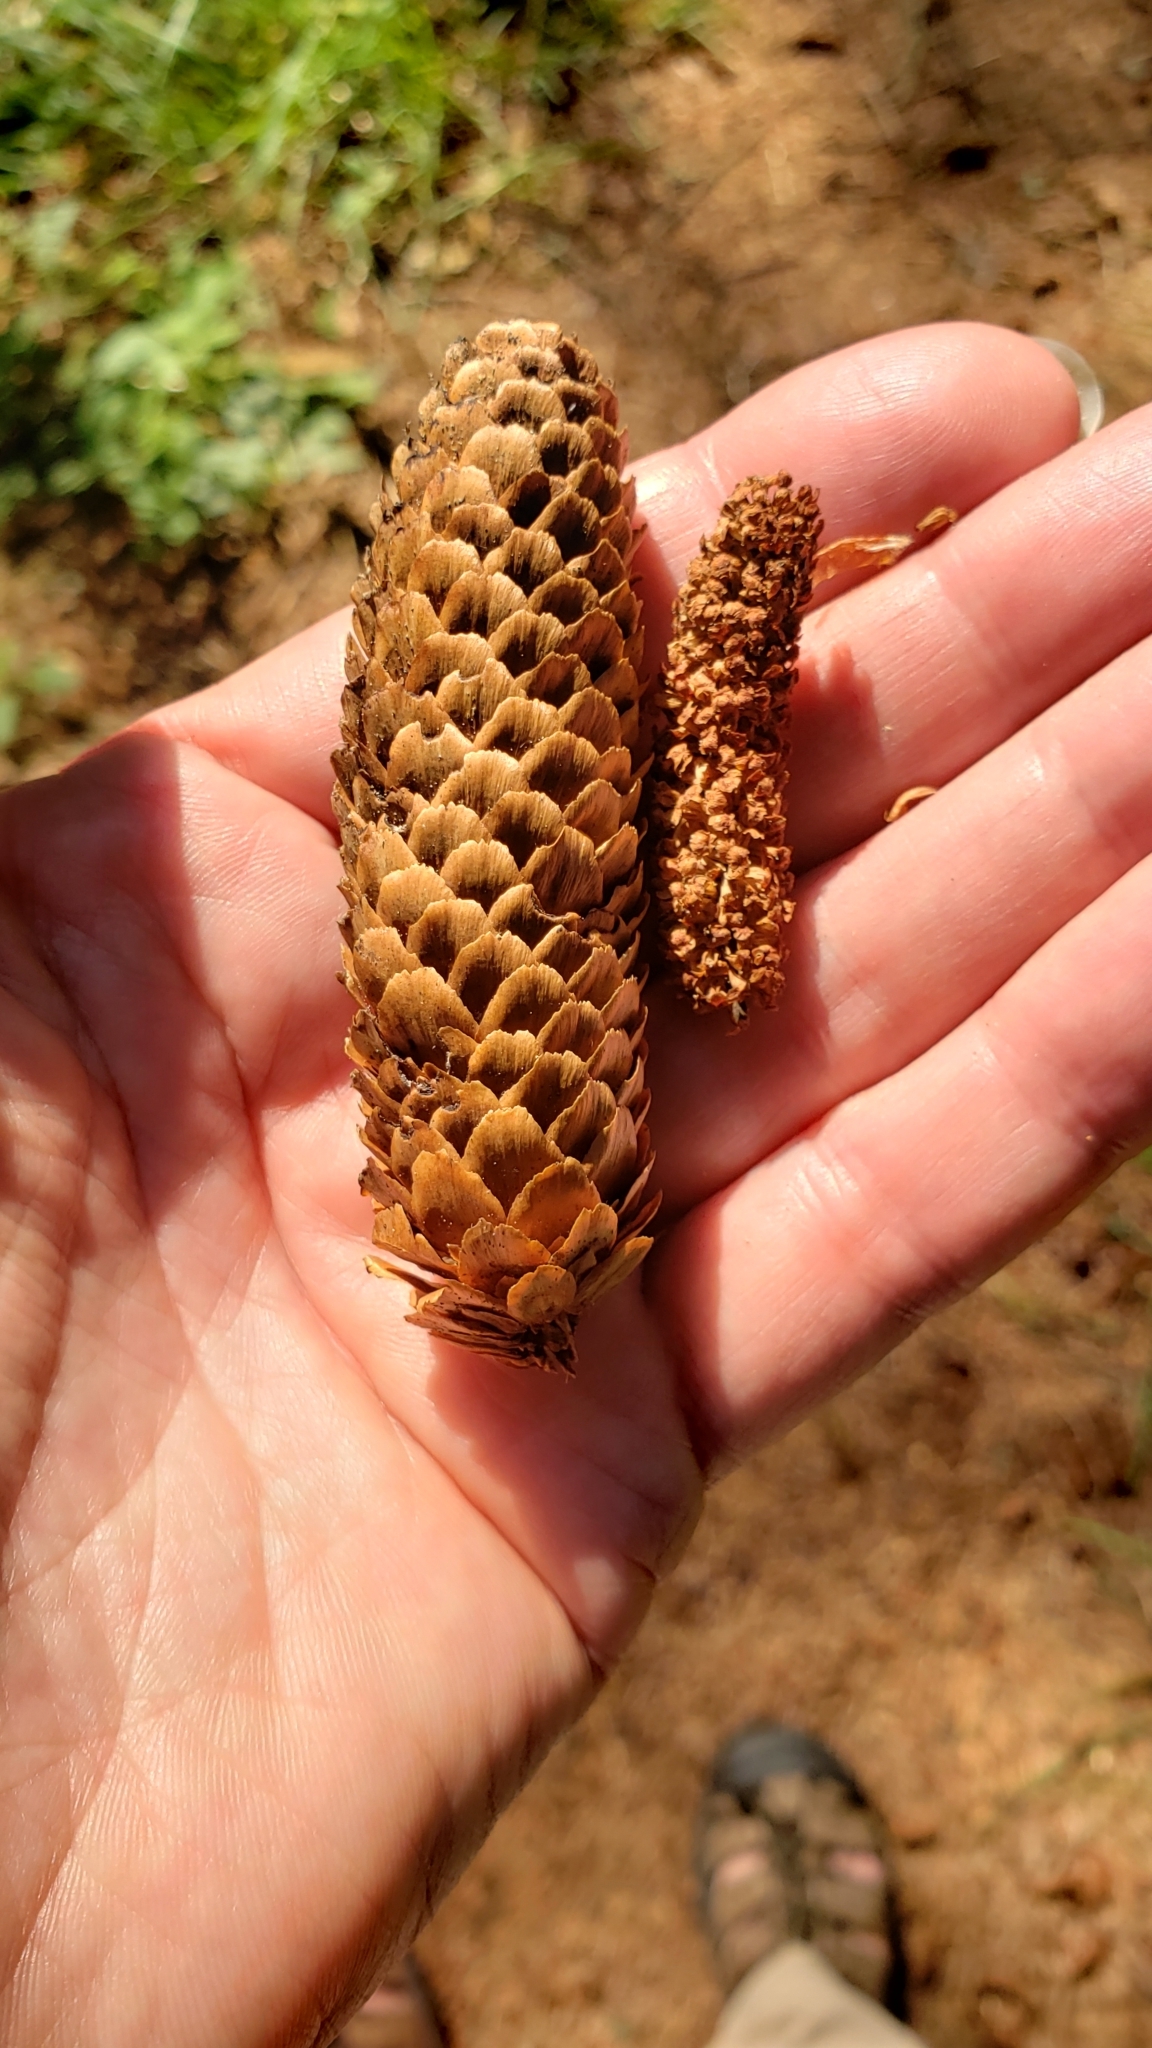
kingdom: Plantae
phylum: Tracheophyta
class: Pinopsida
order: Pinales
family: Pinaceae
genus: Picea
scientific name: Picea sitchensis
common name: Sitka spruce
